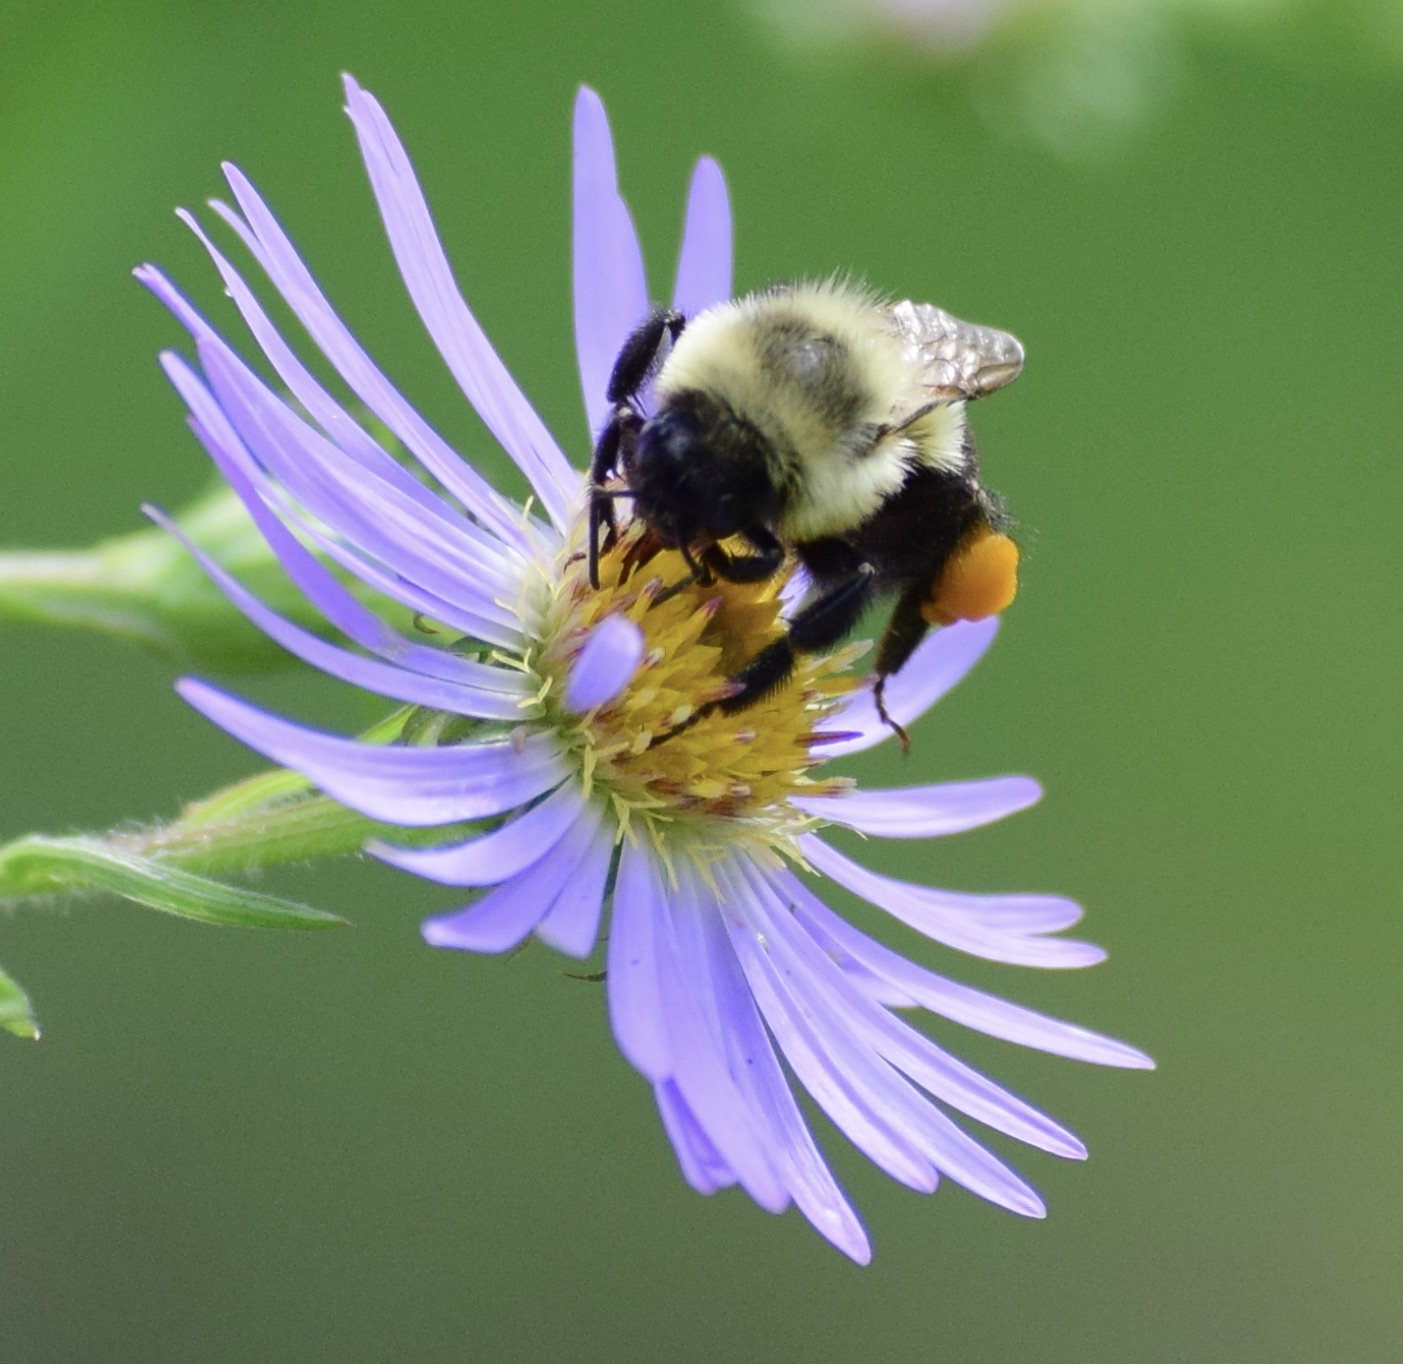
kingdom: Animalia
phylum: Arthropoda
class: Insecta
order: Hymenoptera
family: Apidae
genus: Bombus
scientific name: Bombus impatiens
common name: Common eastern bumble bee
